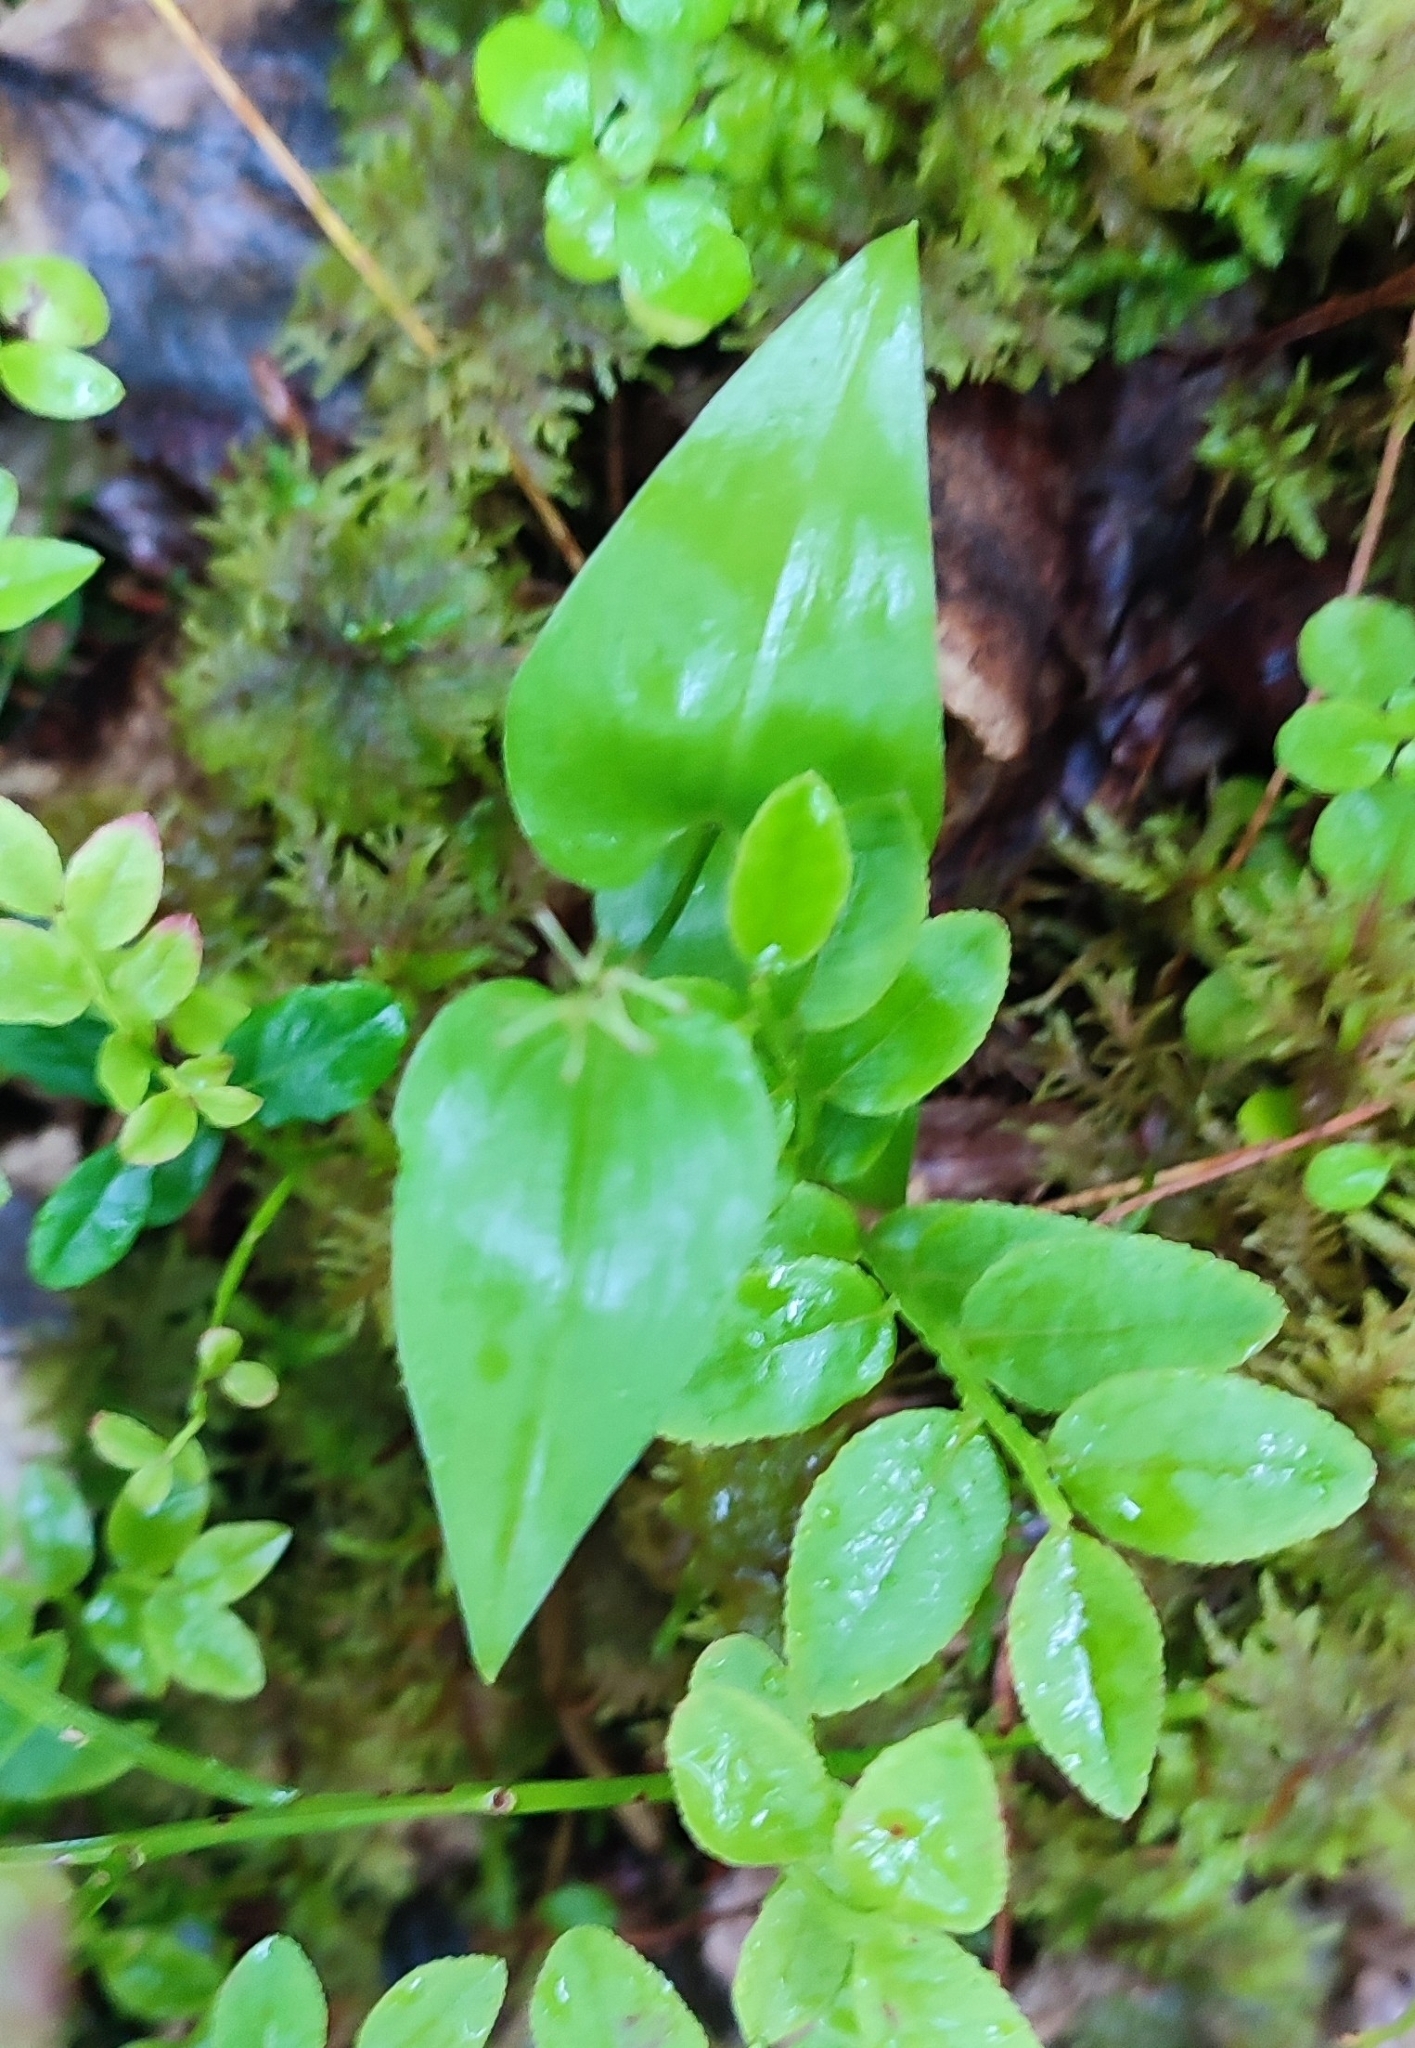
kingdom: Plantae
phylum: Tracheophyta
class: Liliopsida
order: Asparagales
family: Asparagaceae
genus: Maianthemum
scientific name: Maianthemum bifolium
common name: May lily
